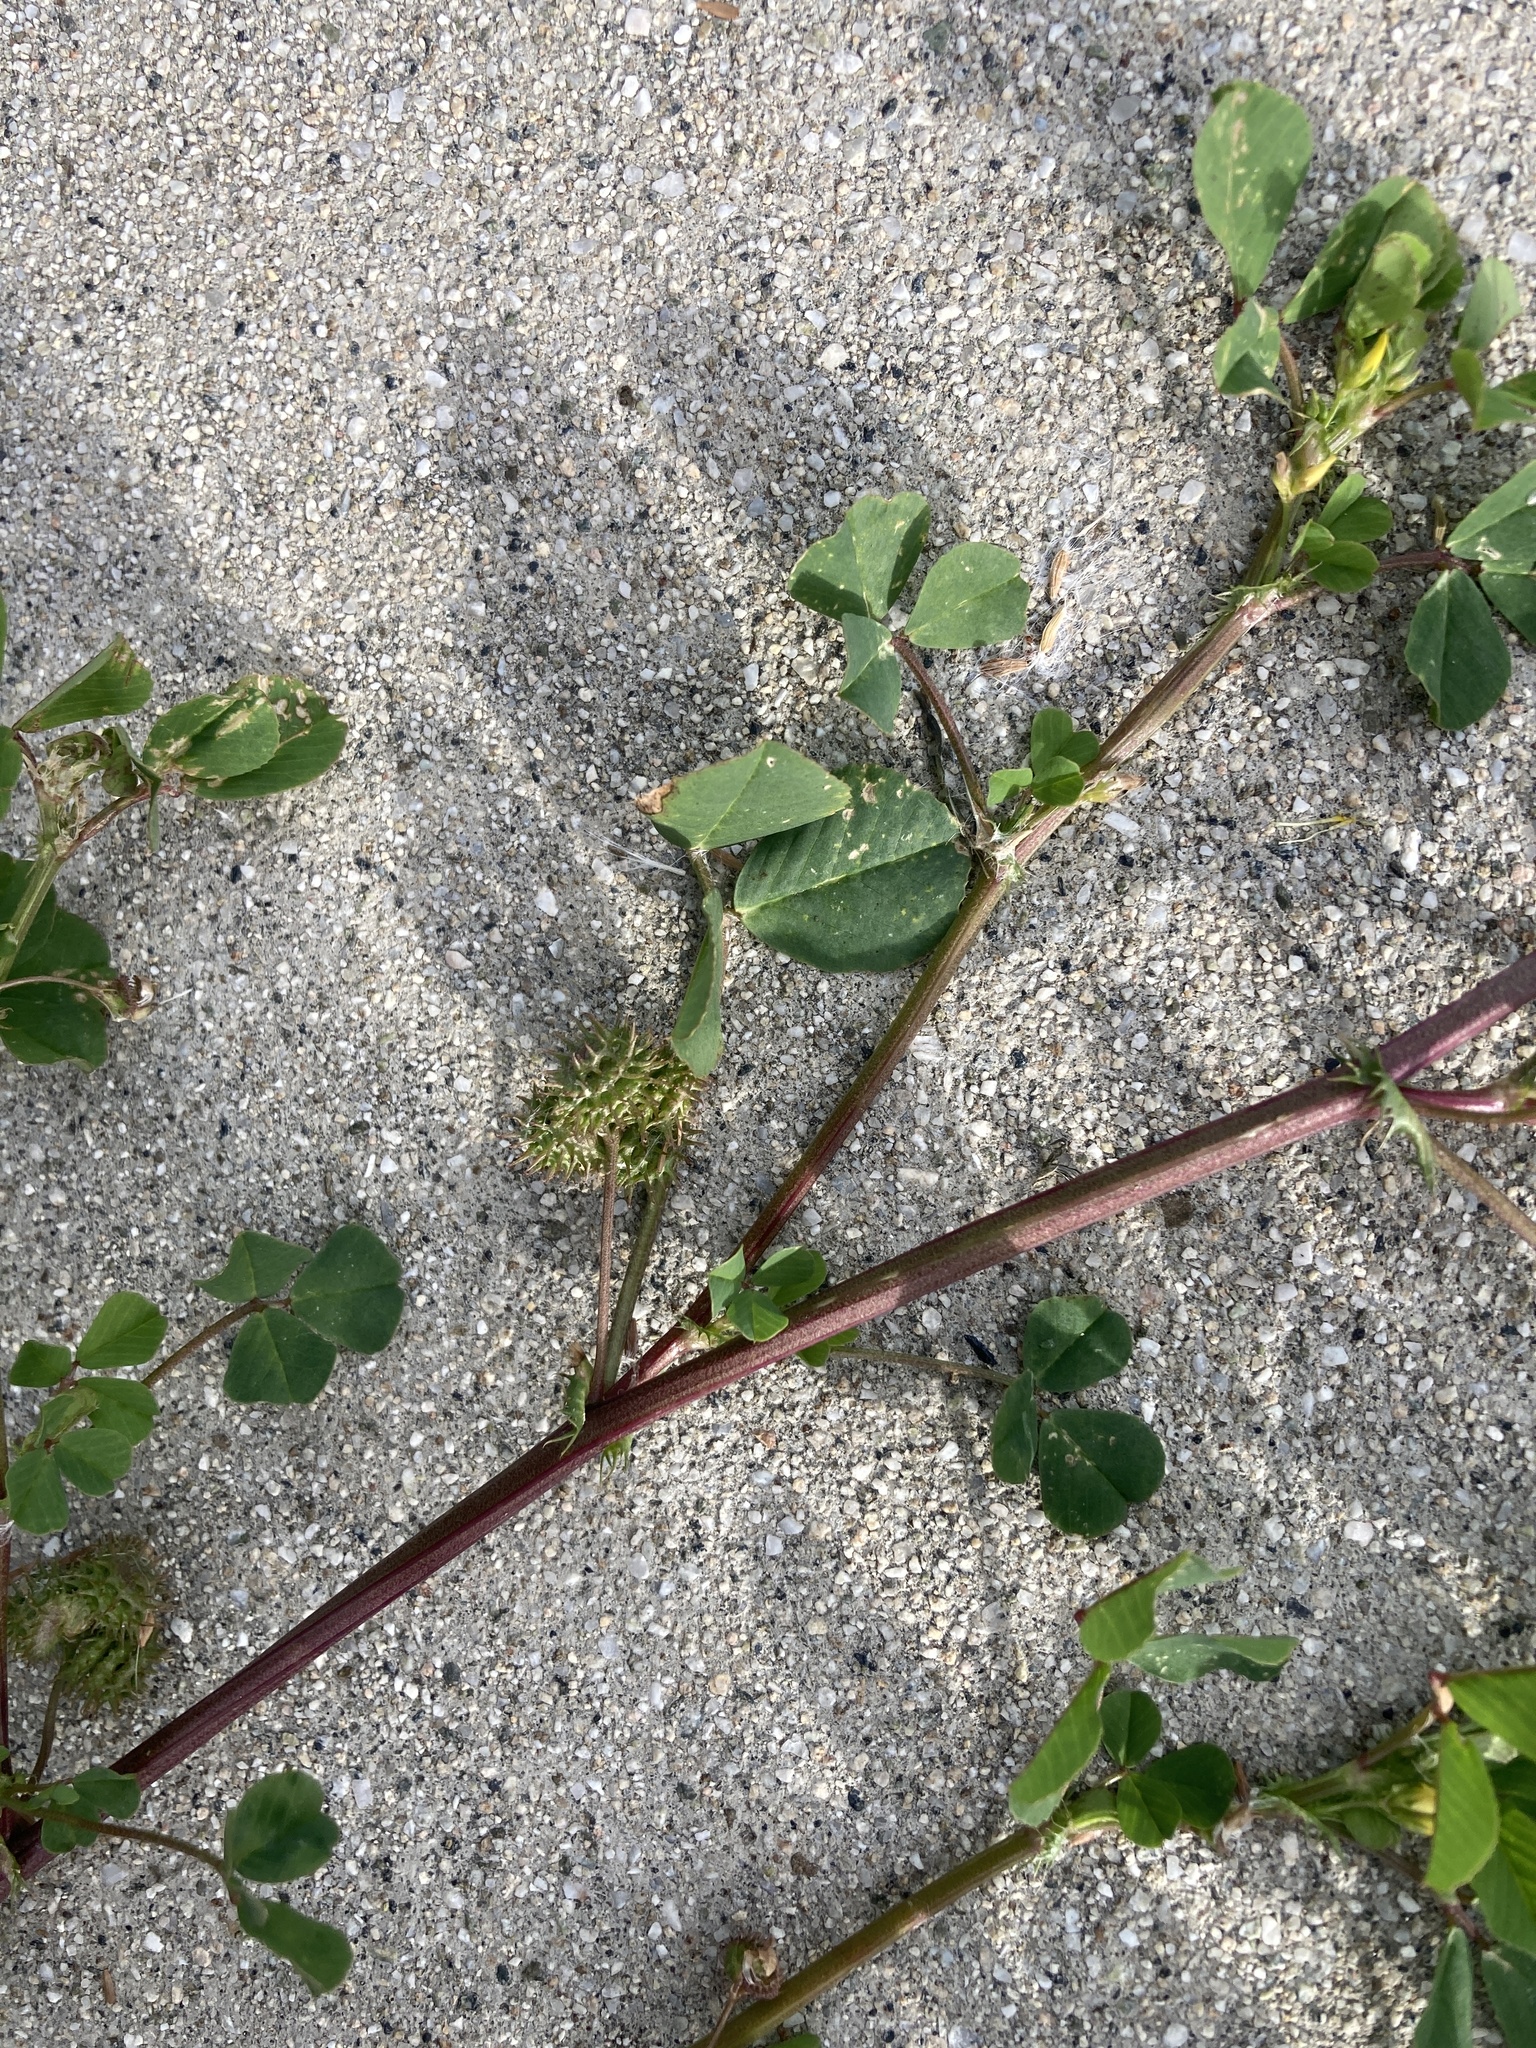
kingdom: Plantae
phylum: Tracheophyta
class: Magnoliopsida
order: Fabales
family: Fabaceae
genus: Medicago
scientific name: Medicago polymorpha
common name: Burclover
